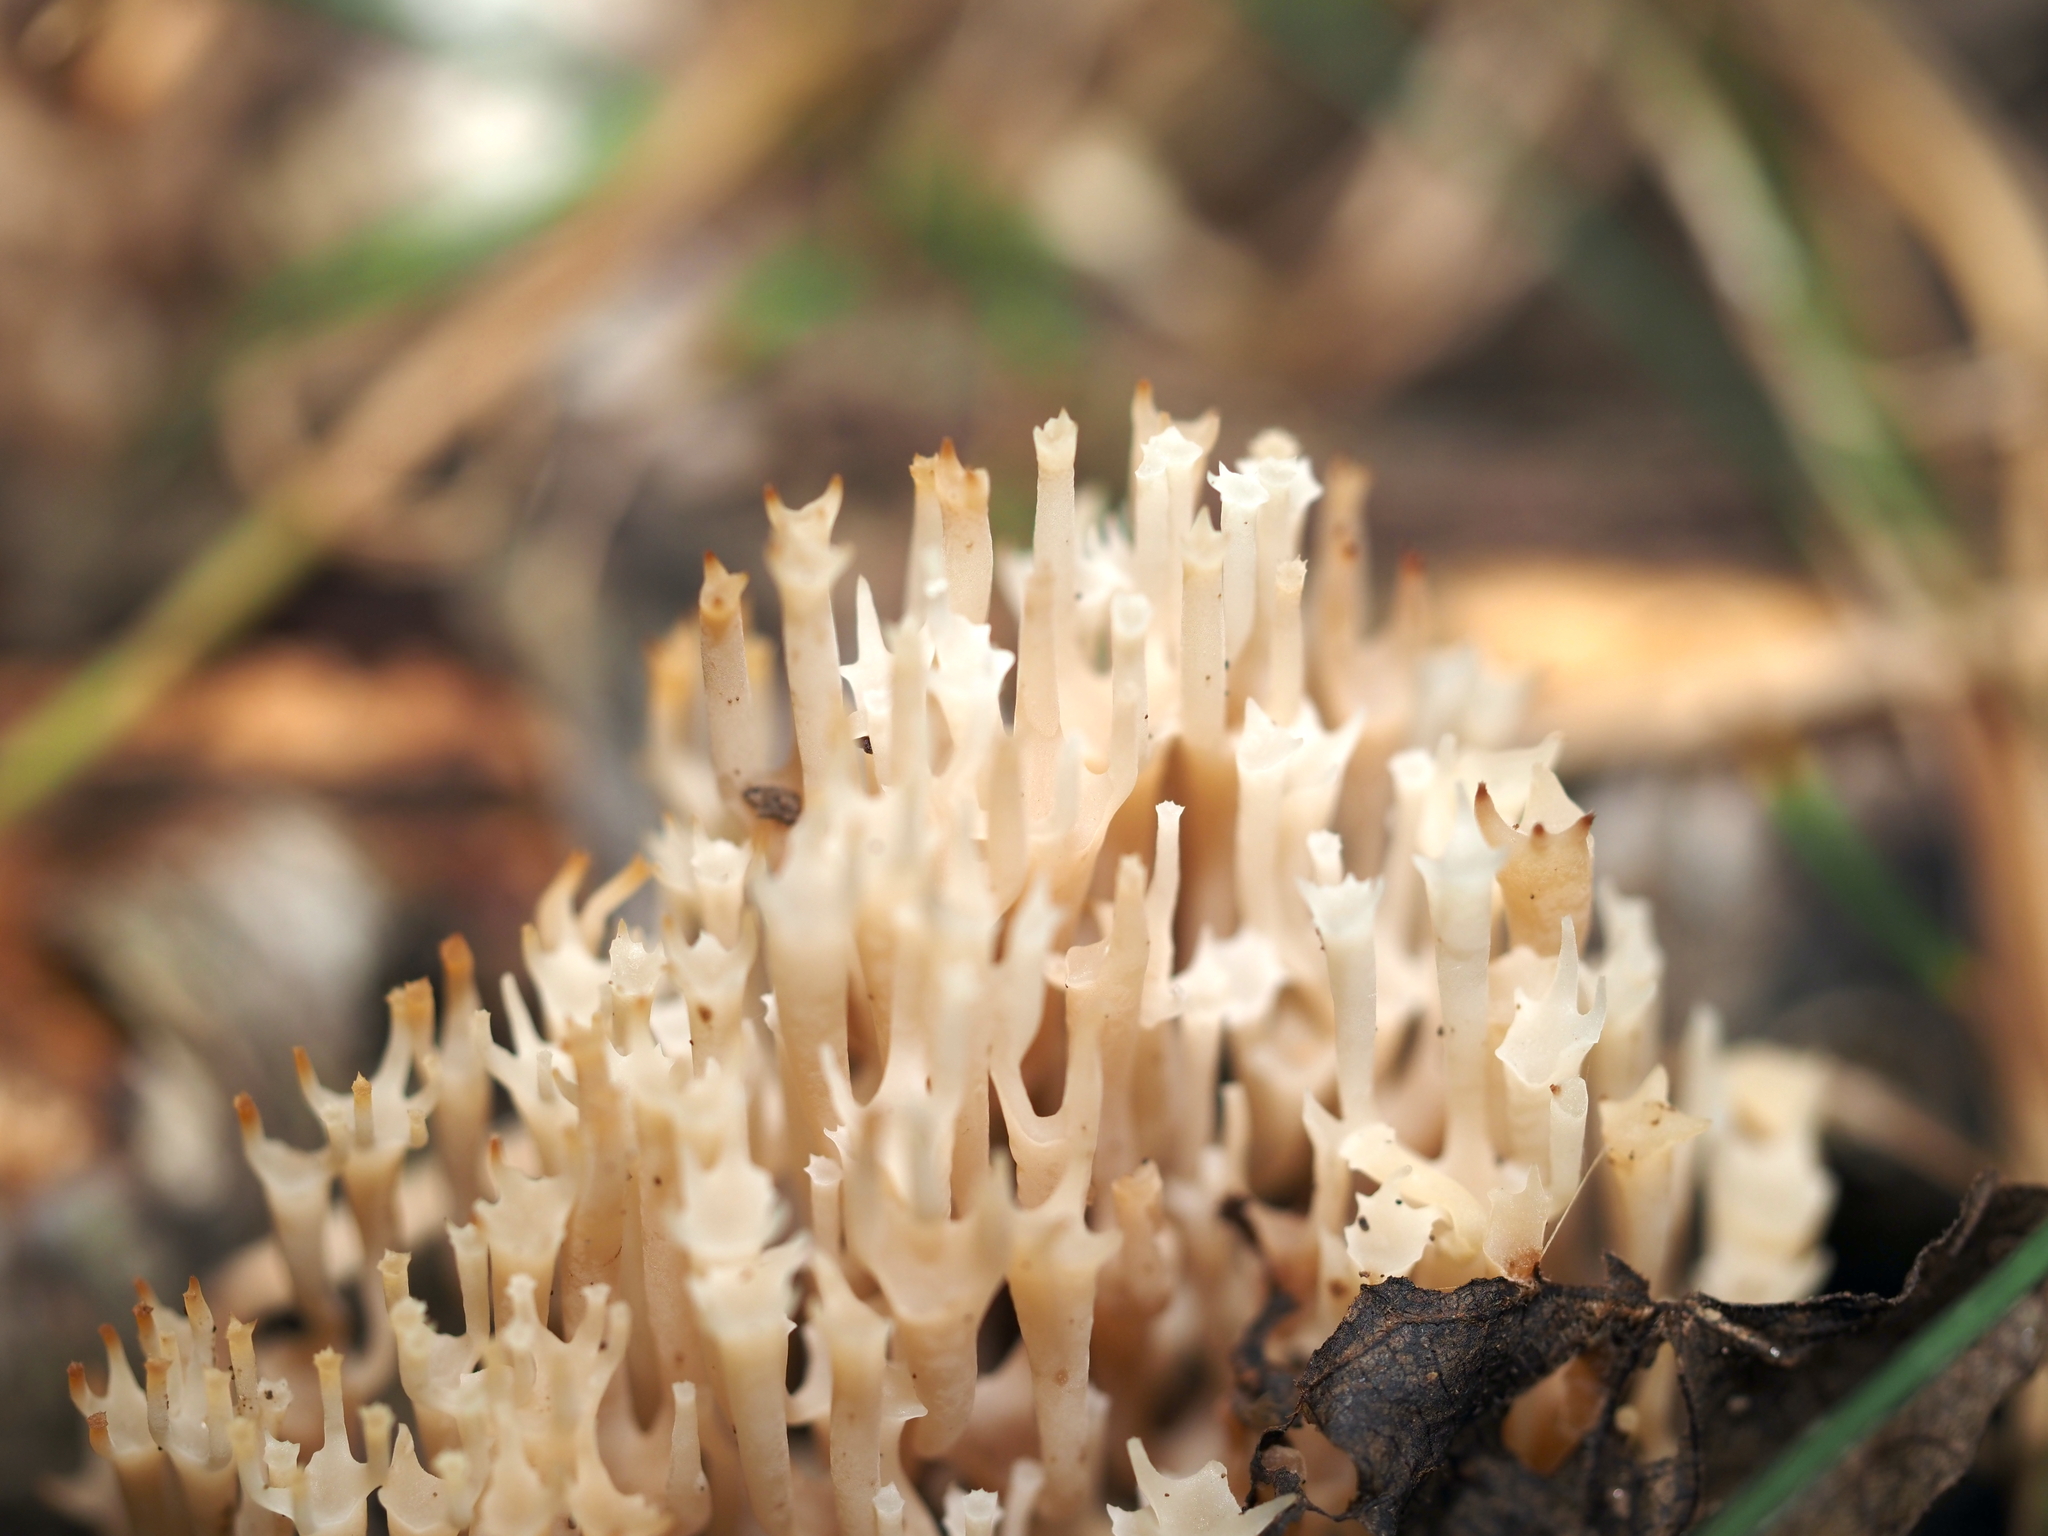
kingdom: Fungi
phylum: Basidiomycota
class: Agaricomycetes
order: Russulales
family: Auriscalpiaceae
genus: Artomyces
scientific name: Artomyces pyxidatus
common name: Crown-tipped coral fungus
